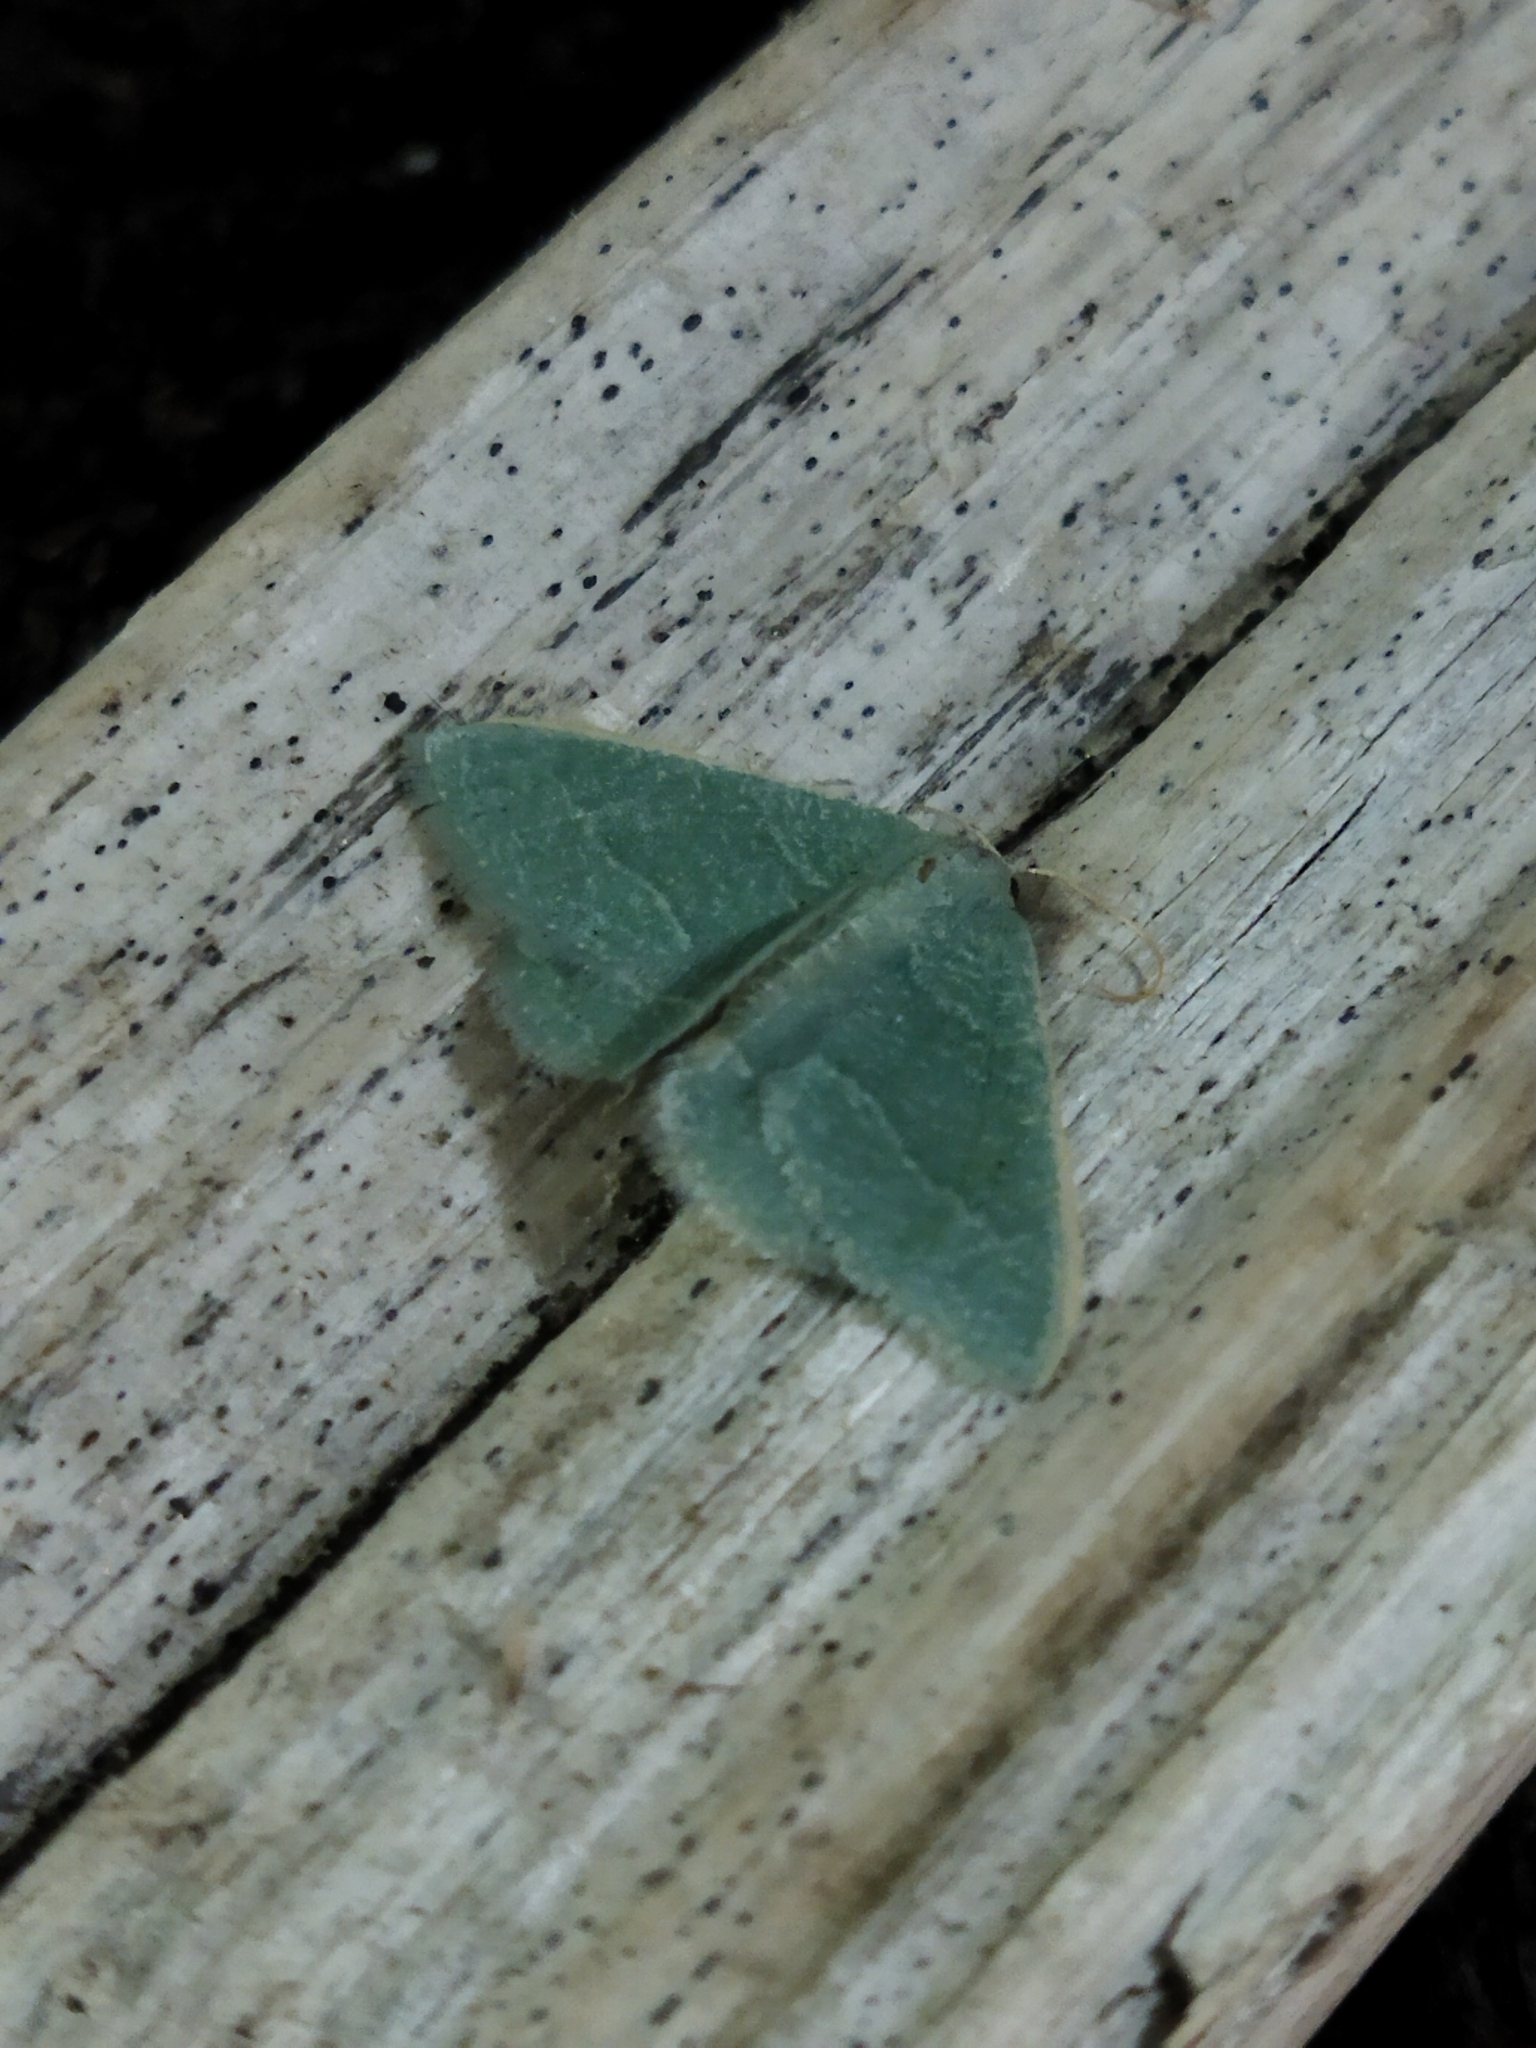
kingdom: Animalia
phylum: Arthropoda
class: Insecta
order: Lepidoptera
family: Geometridae
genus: Chlorissa
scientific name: Chlorissa etruscaria
